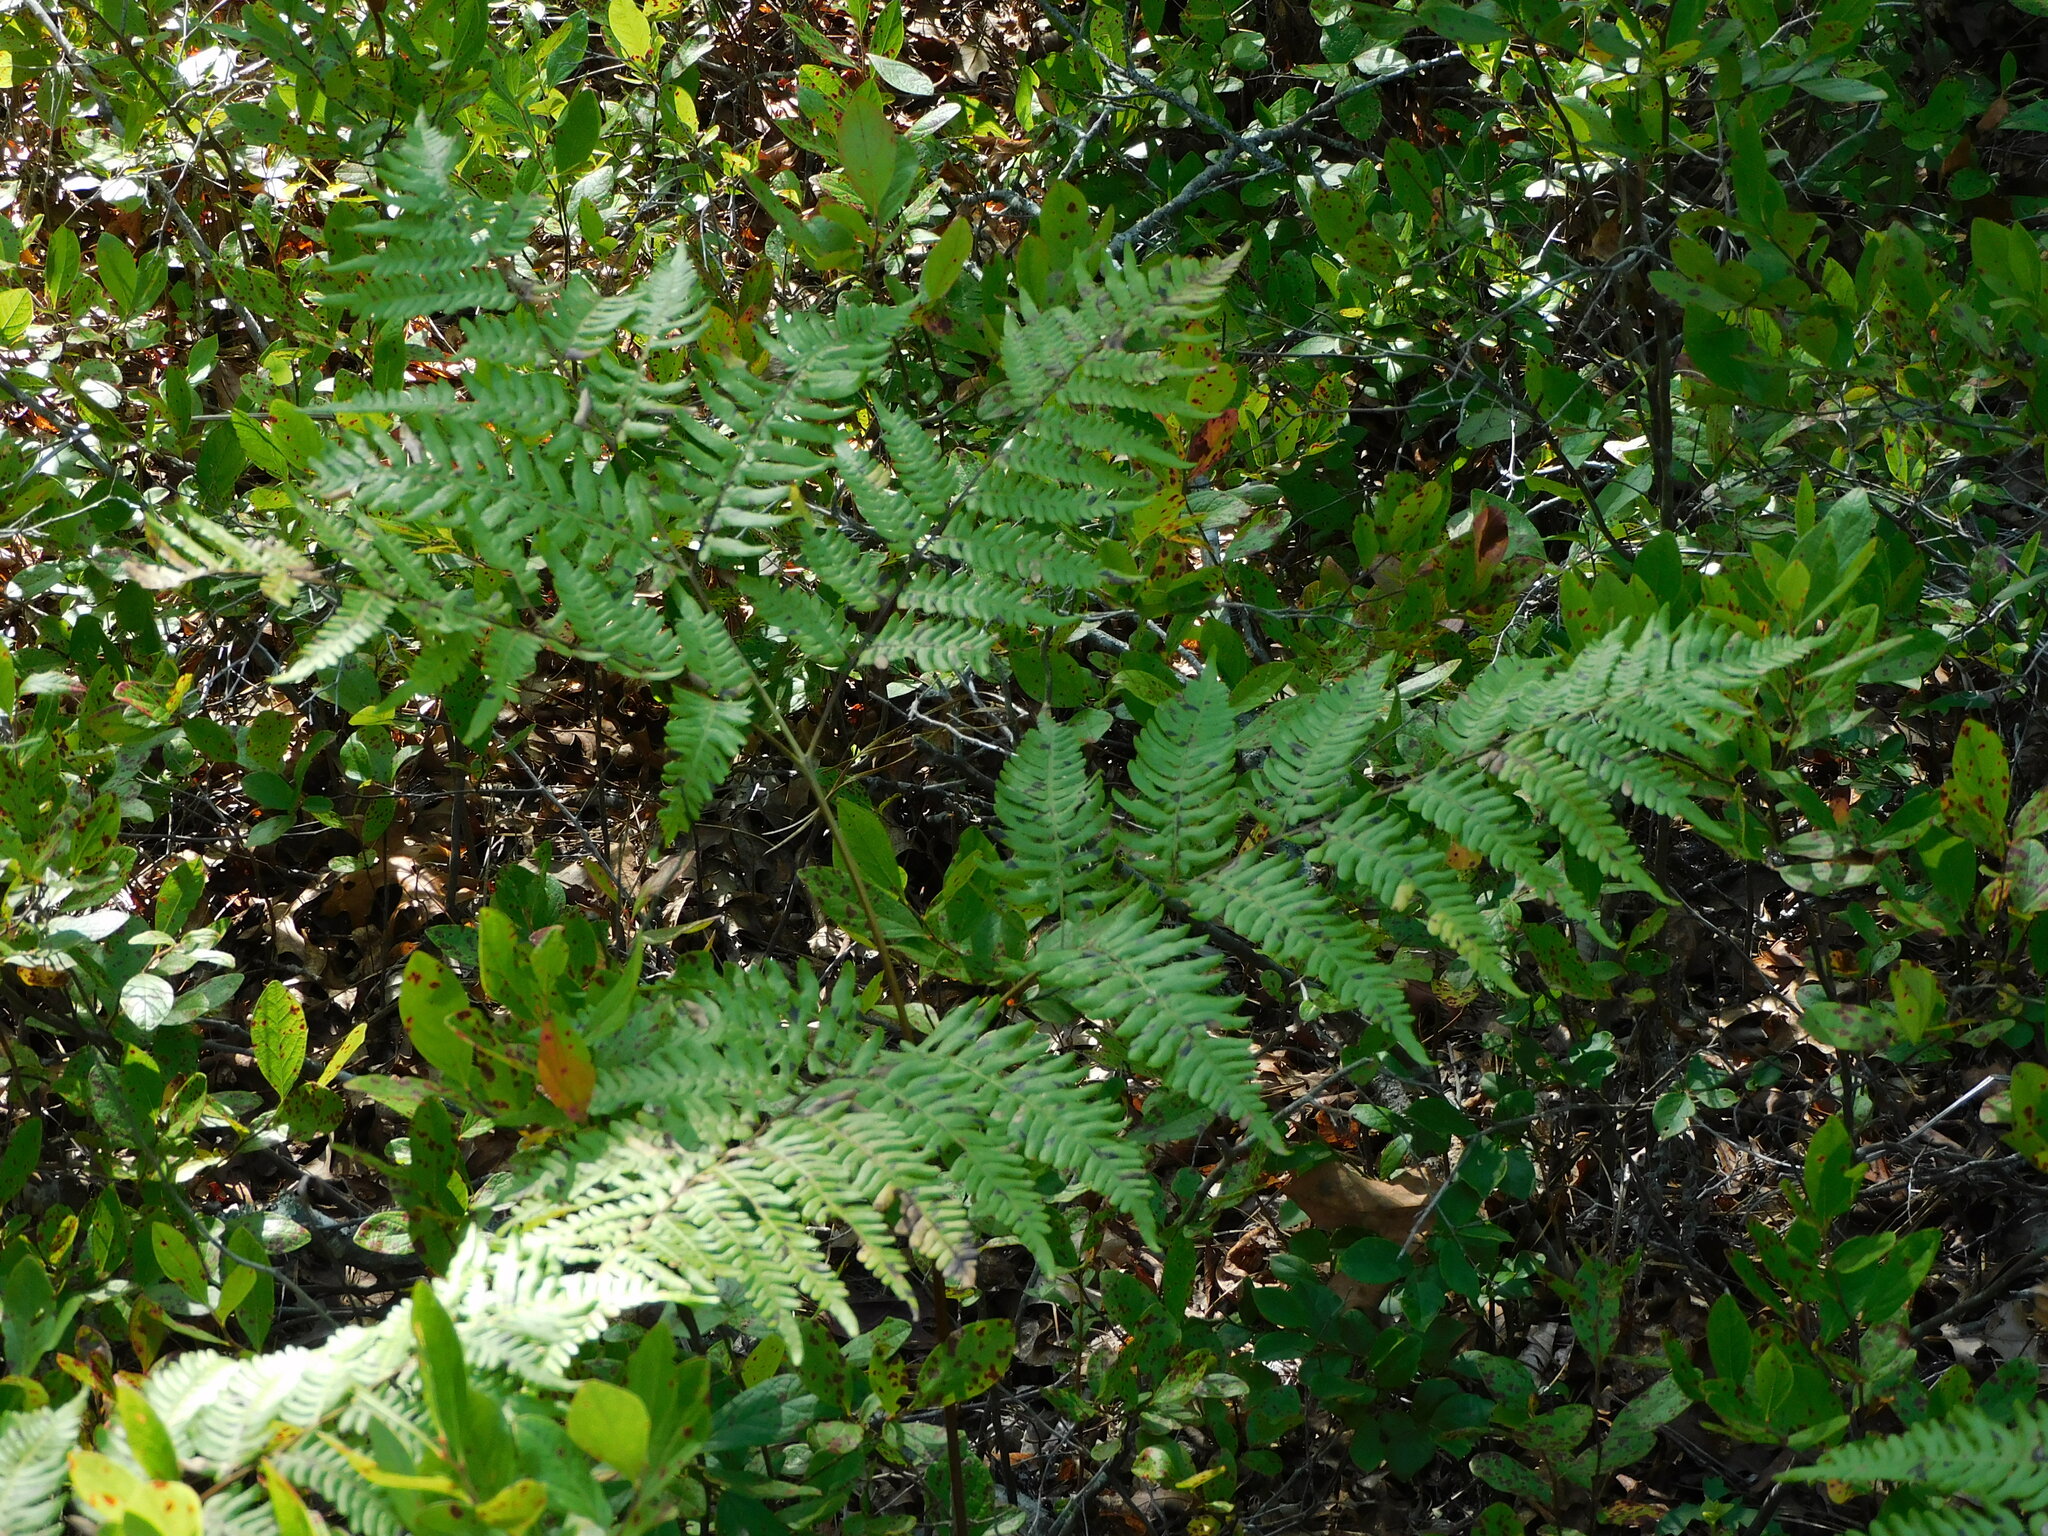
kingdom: Plantae
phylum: Tracheophyta
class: Polypodiopsida
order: Polypodiales
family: Dennstaedtiaceae
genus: Pteridium
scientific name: Pteridium aquilinum
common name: Bracken
